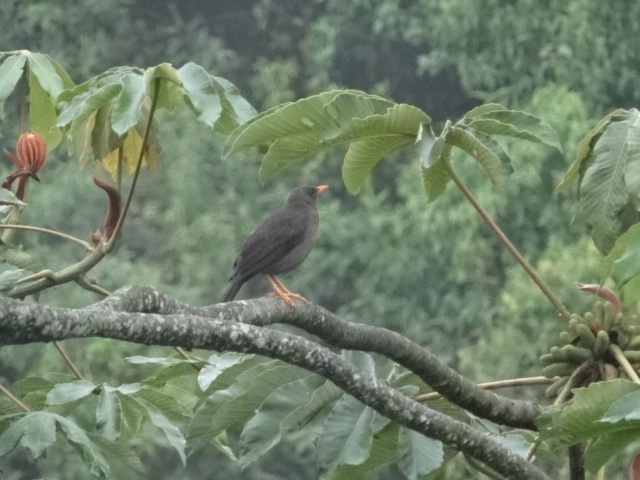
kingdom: Animalia
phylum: Chordata
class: Aves
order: Passeriformes
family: Turdidae
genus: Turdus
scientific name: Turdus fuscater
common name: Great thrush
